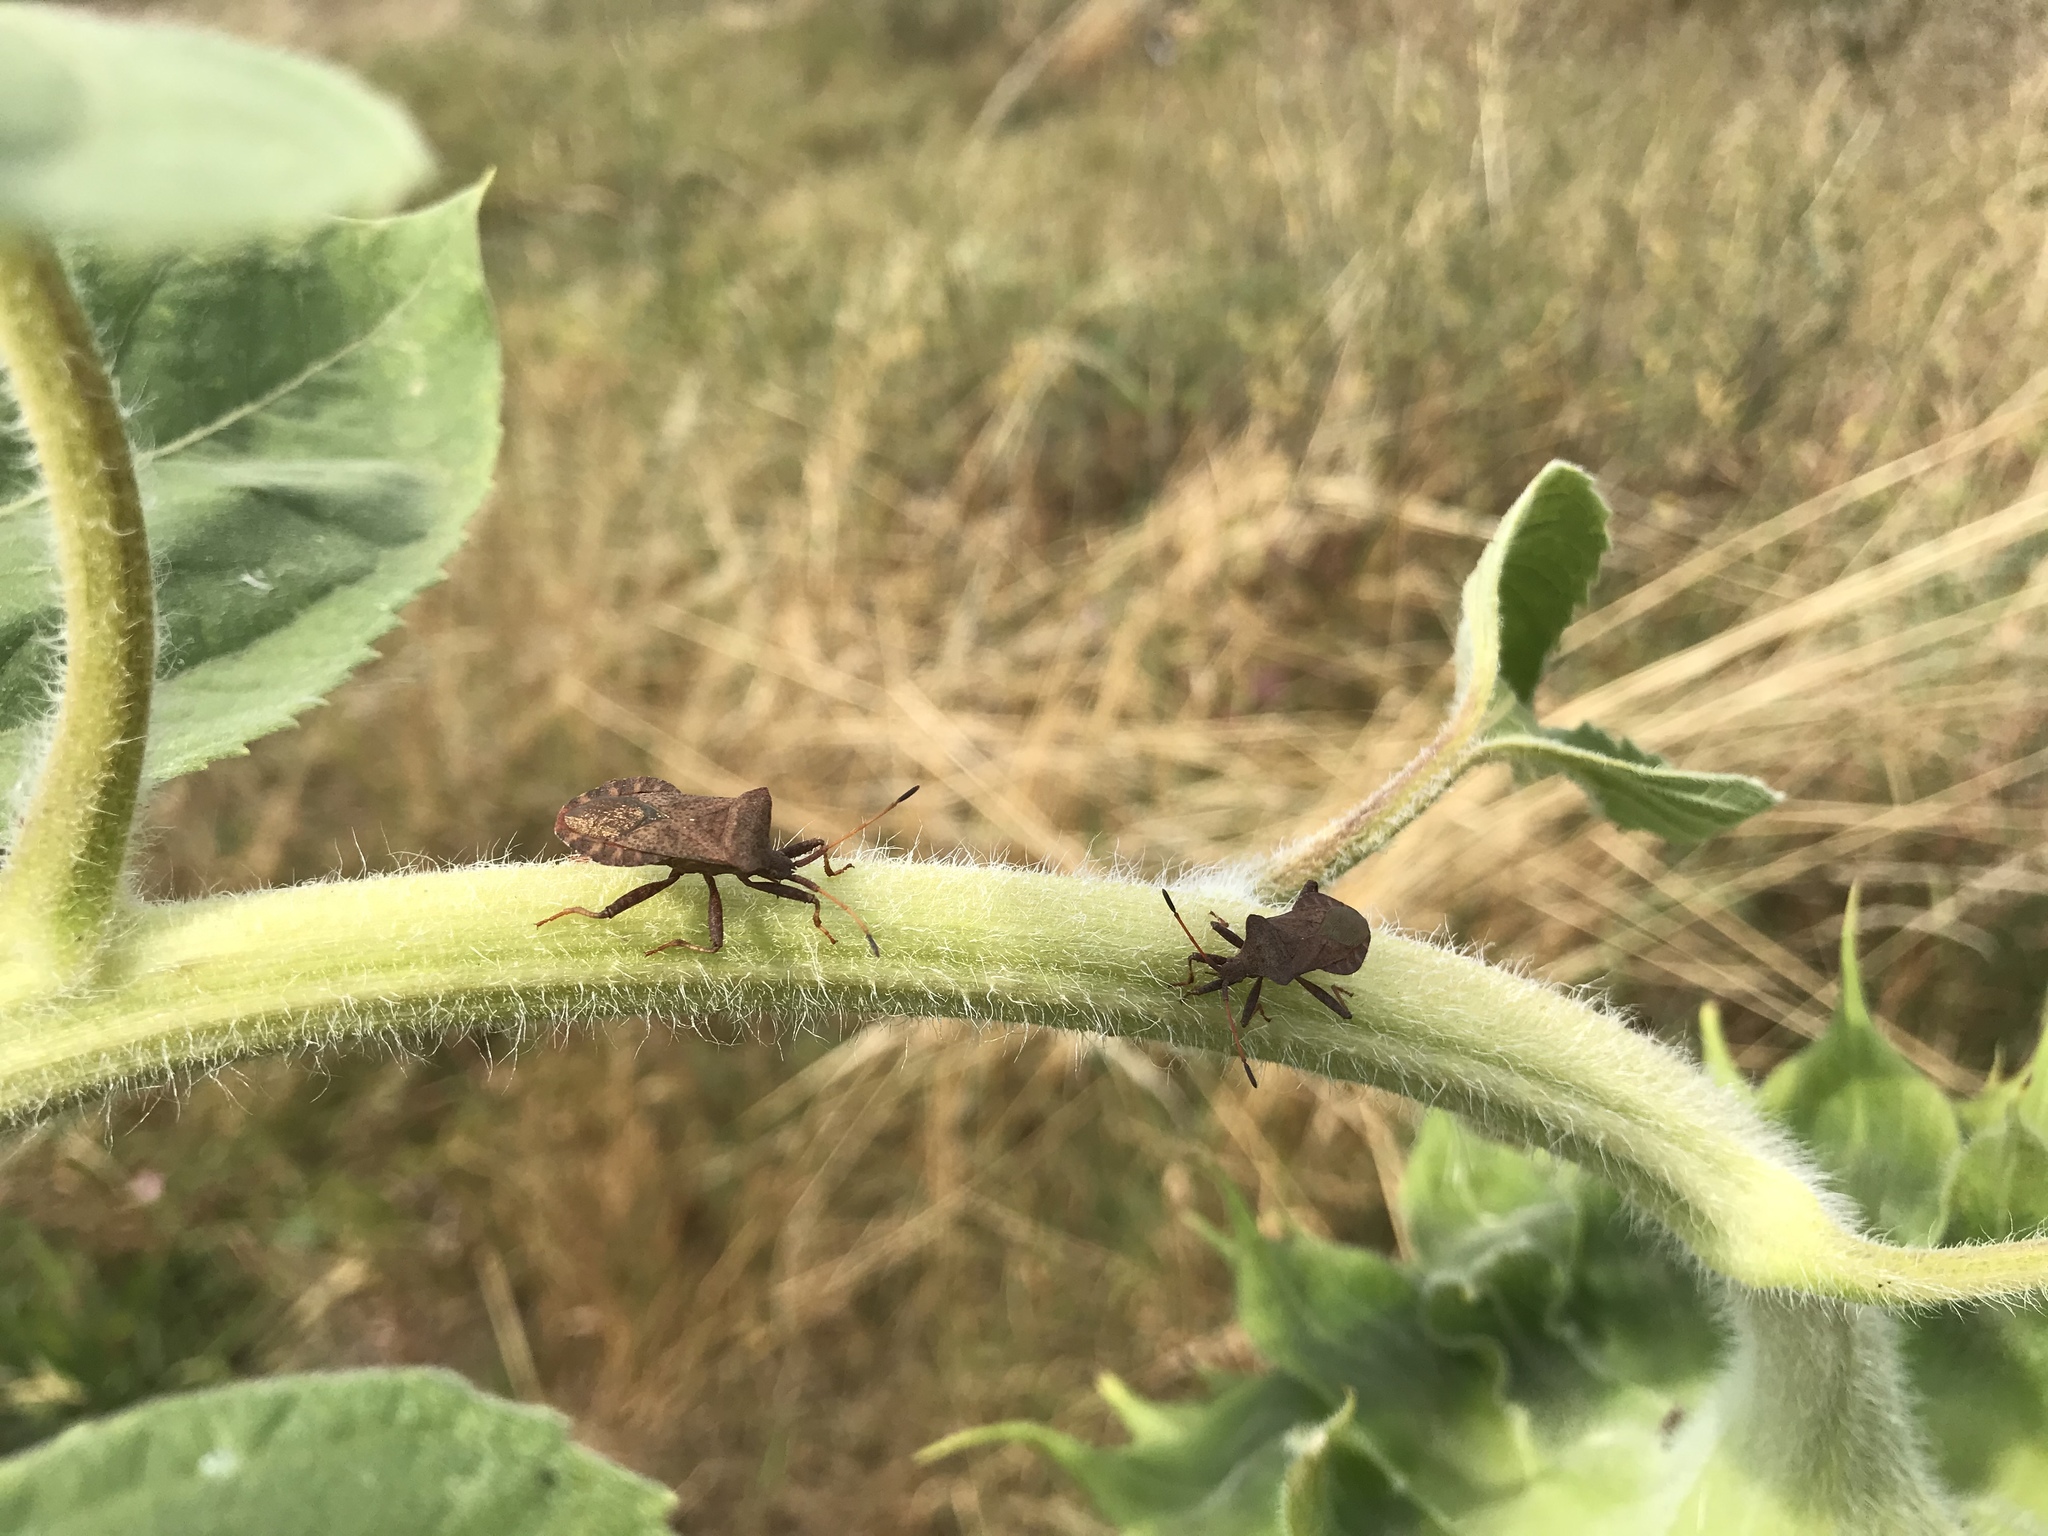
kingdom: Animalia
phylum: Arthropoda
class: Insecta
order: Hemiptera
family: Coreidae
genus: Coreus
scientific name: Coreus marginatus
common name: Dock bug
